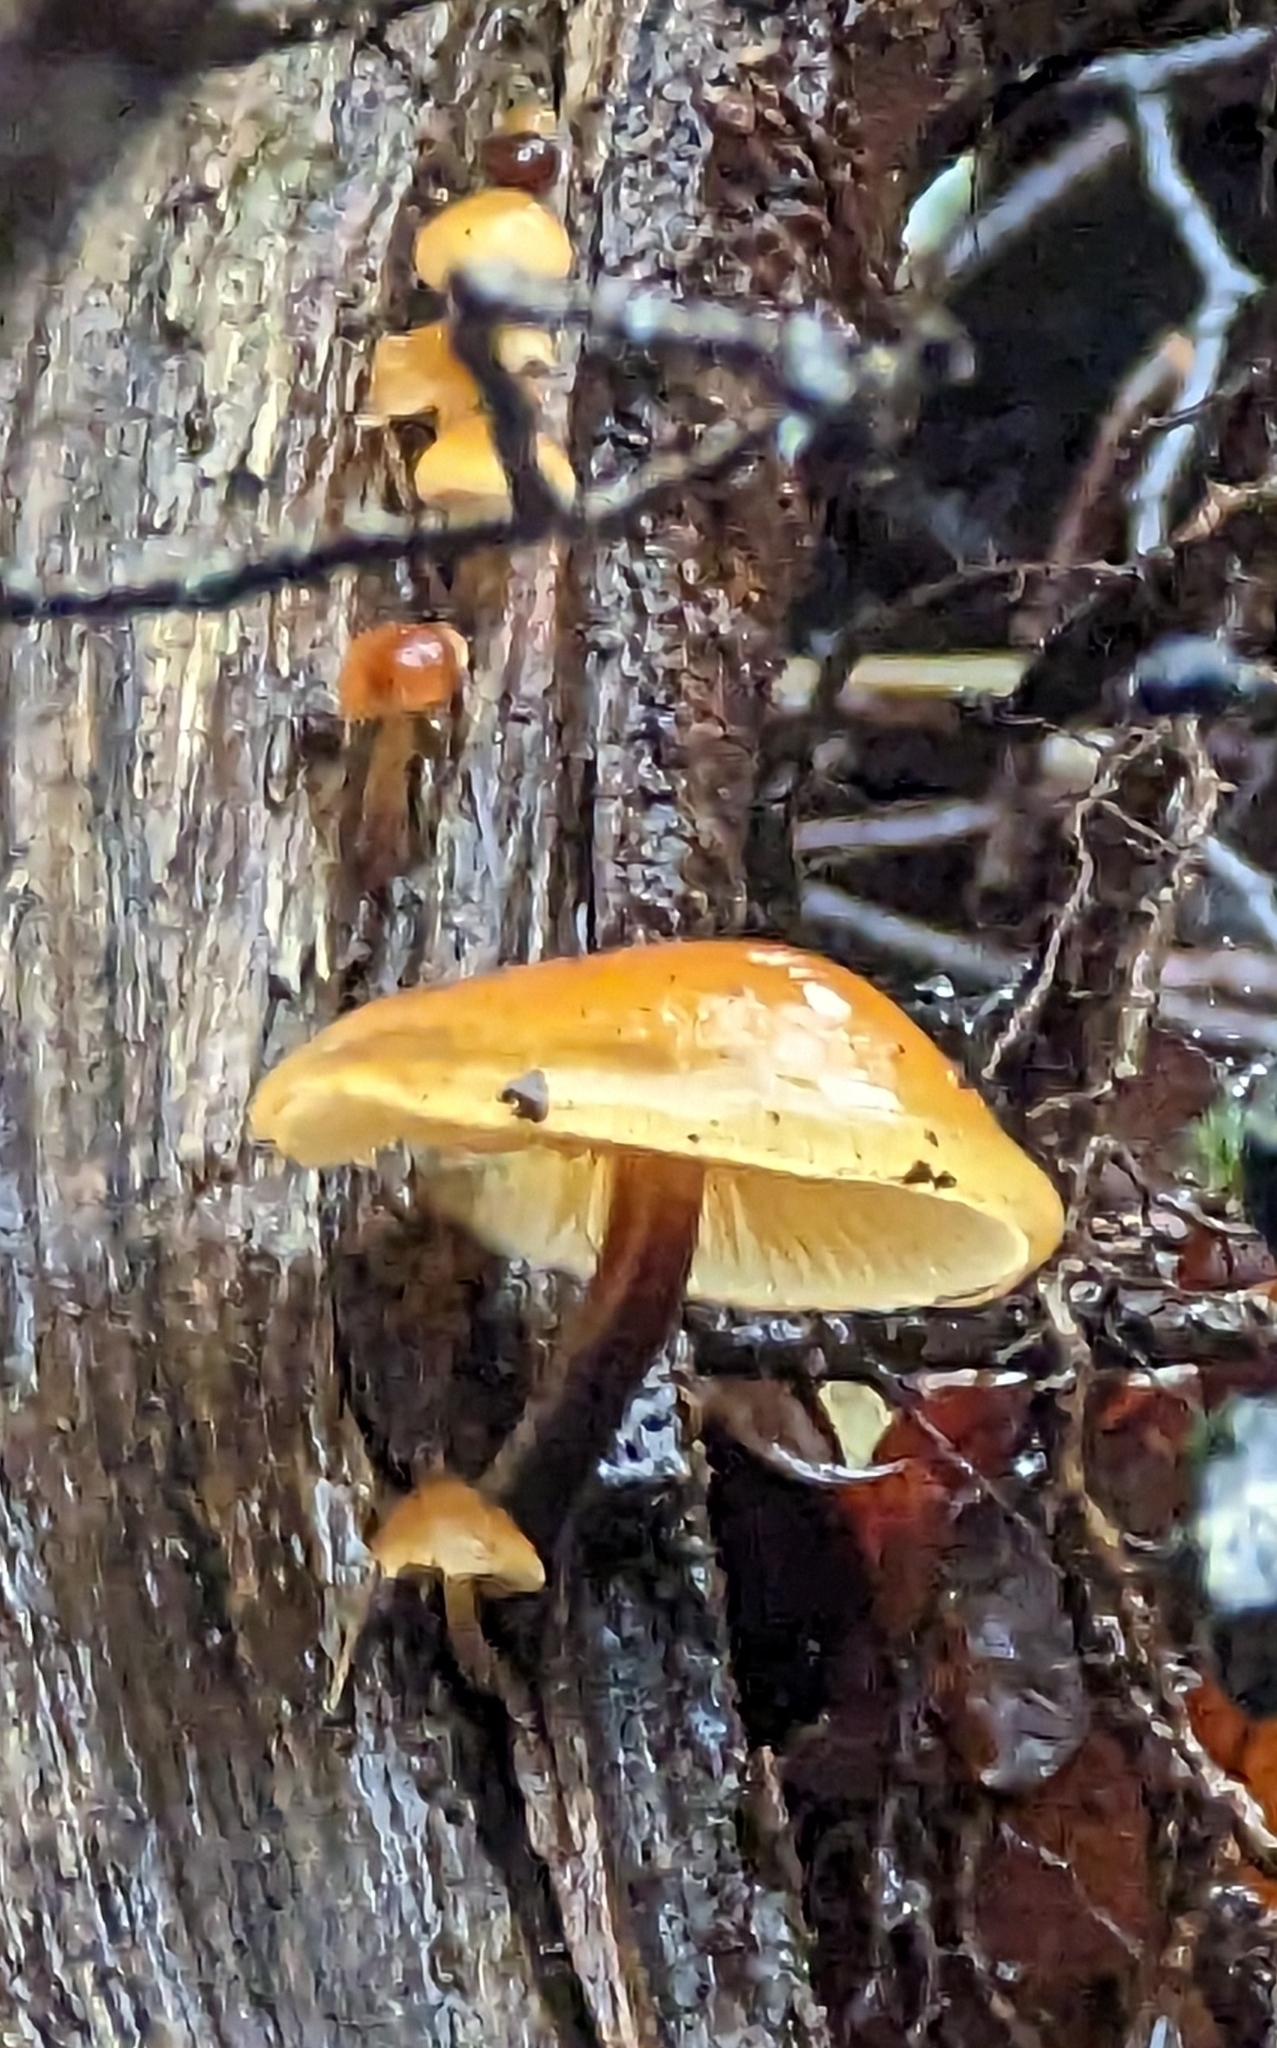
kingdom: Fungi
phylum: Basidiomycota
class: Agaricomycetes
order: Agaricales
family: Physalacriaceae
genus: Flammulina
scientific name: Flammulina
